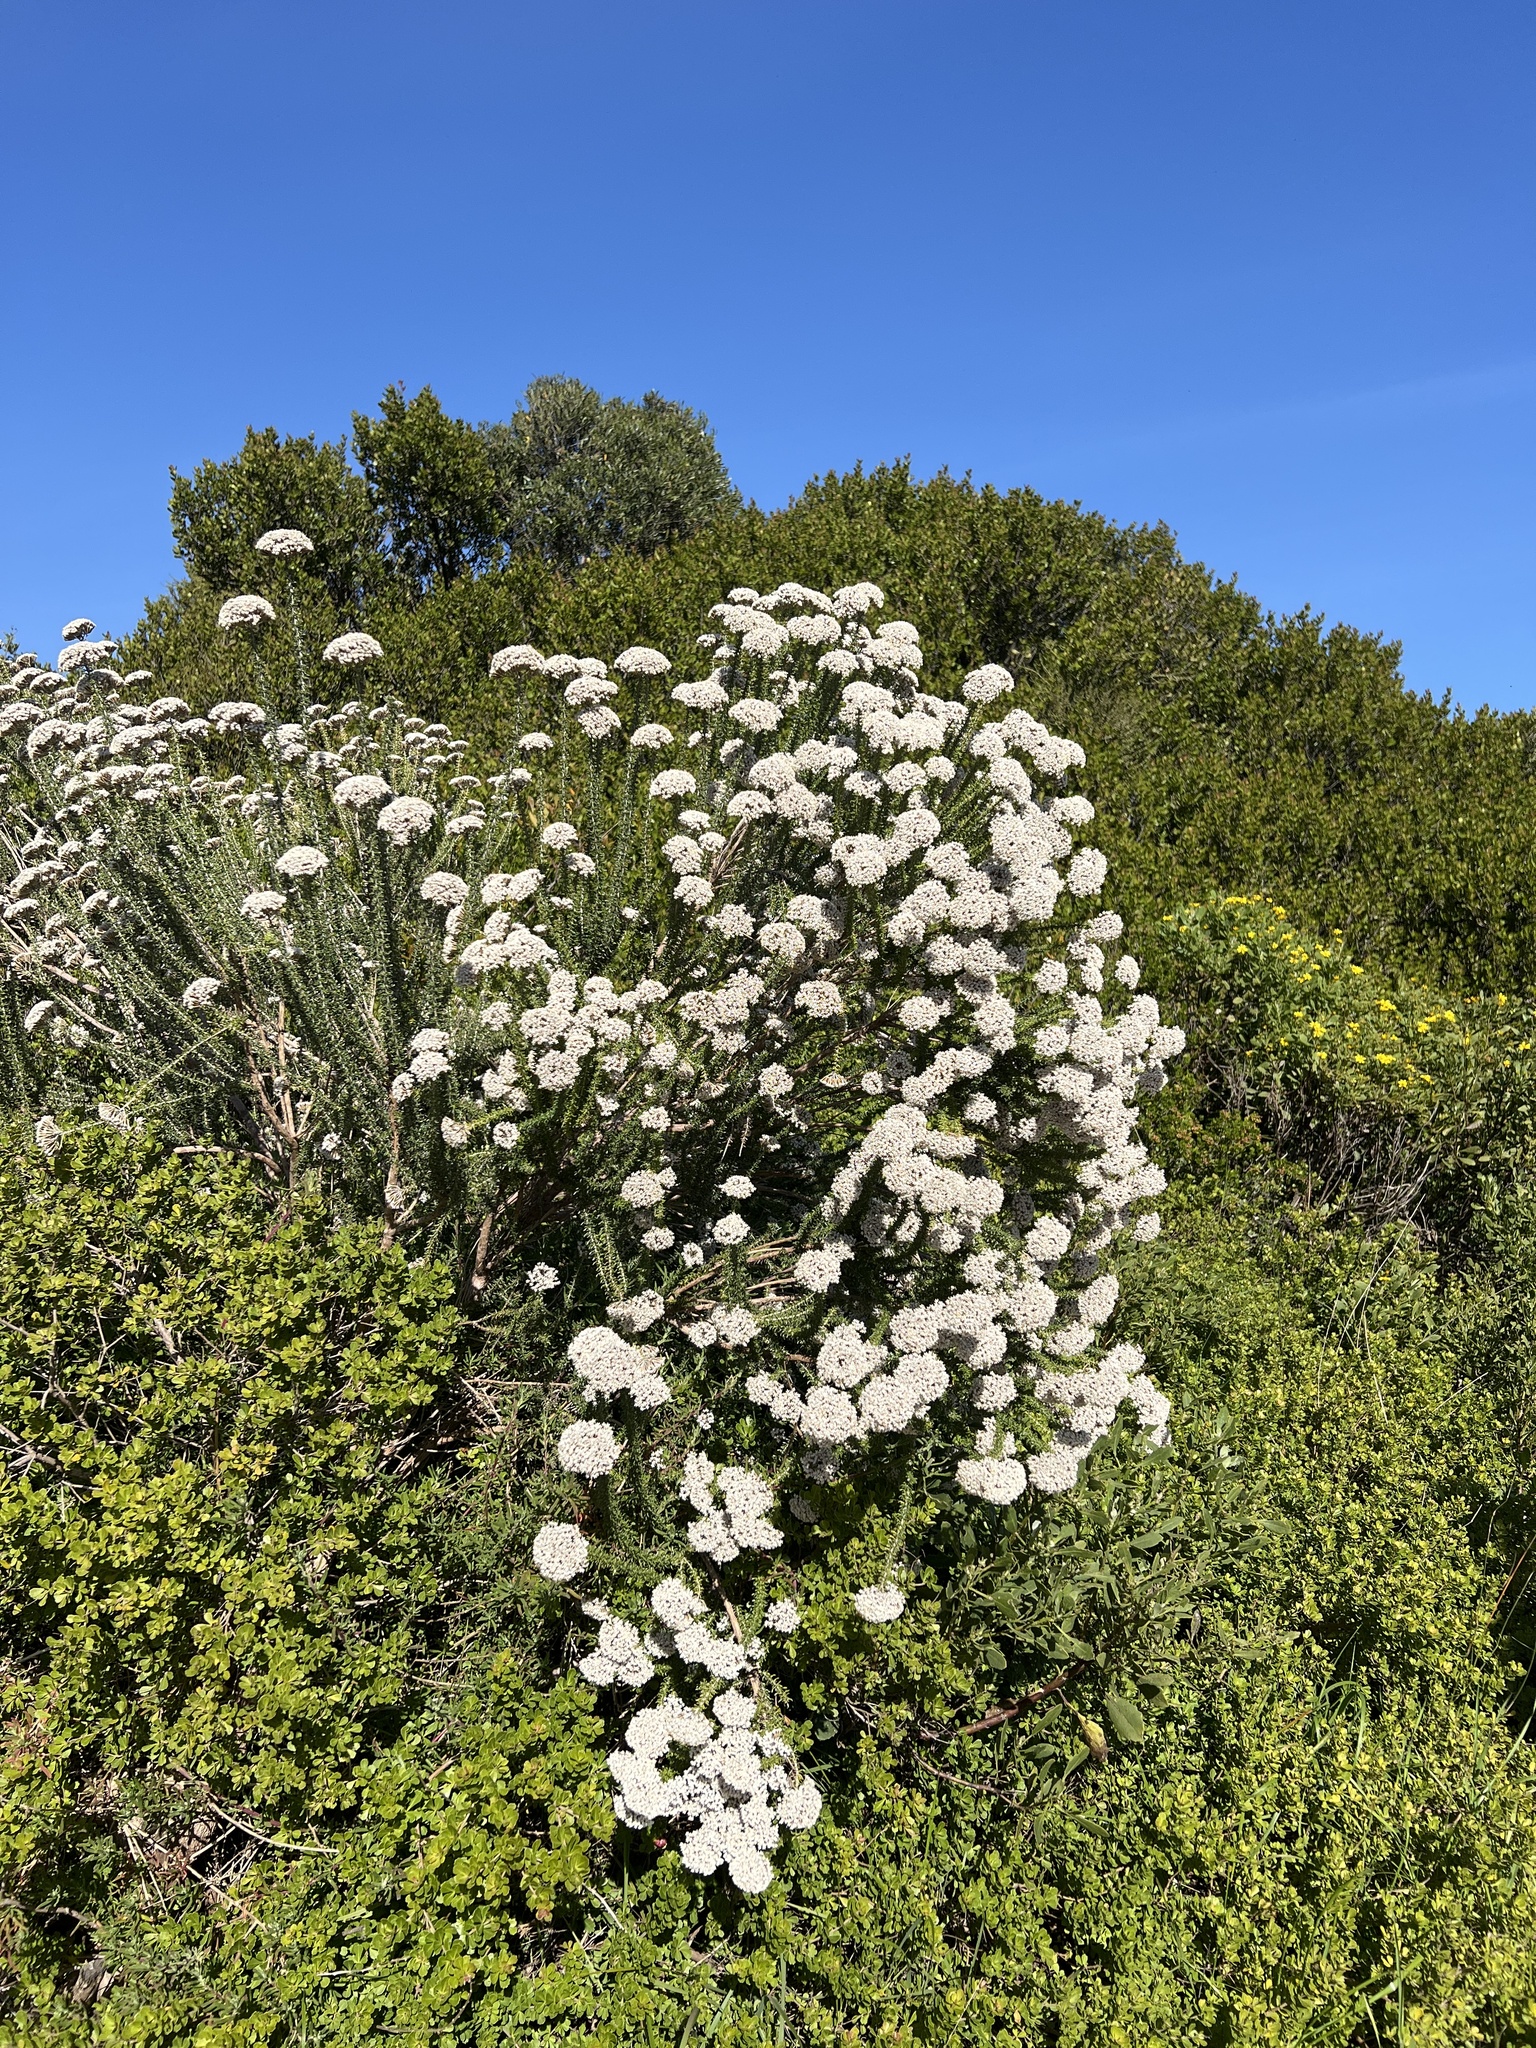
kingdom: Plantae
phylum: Tracheophyta
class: Magnoliopsida
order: Asterales
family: Asteraceae
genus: Metalasia
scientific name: Metalasia muricata
